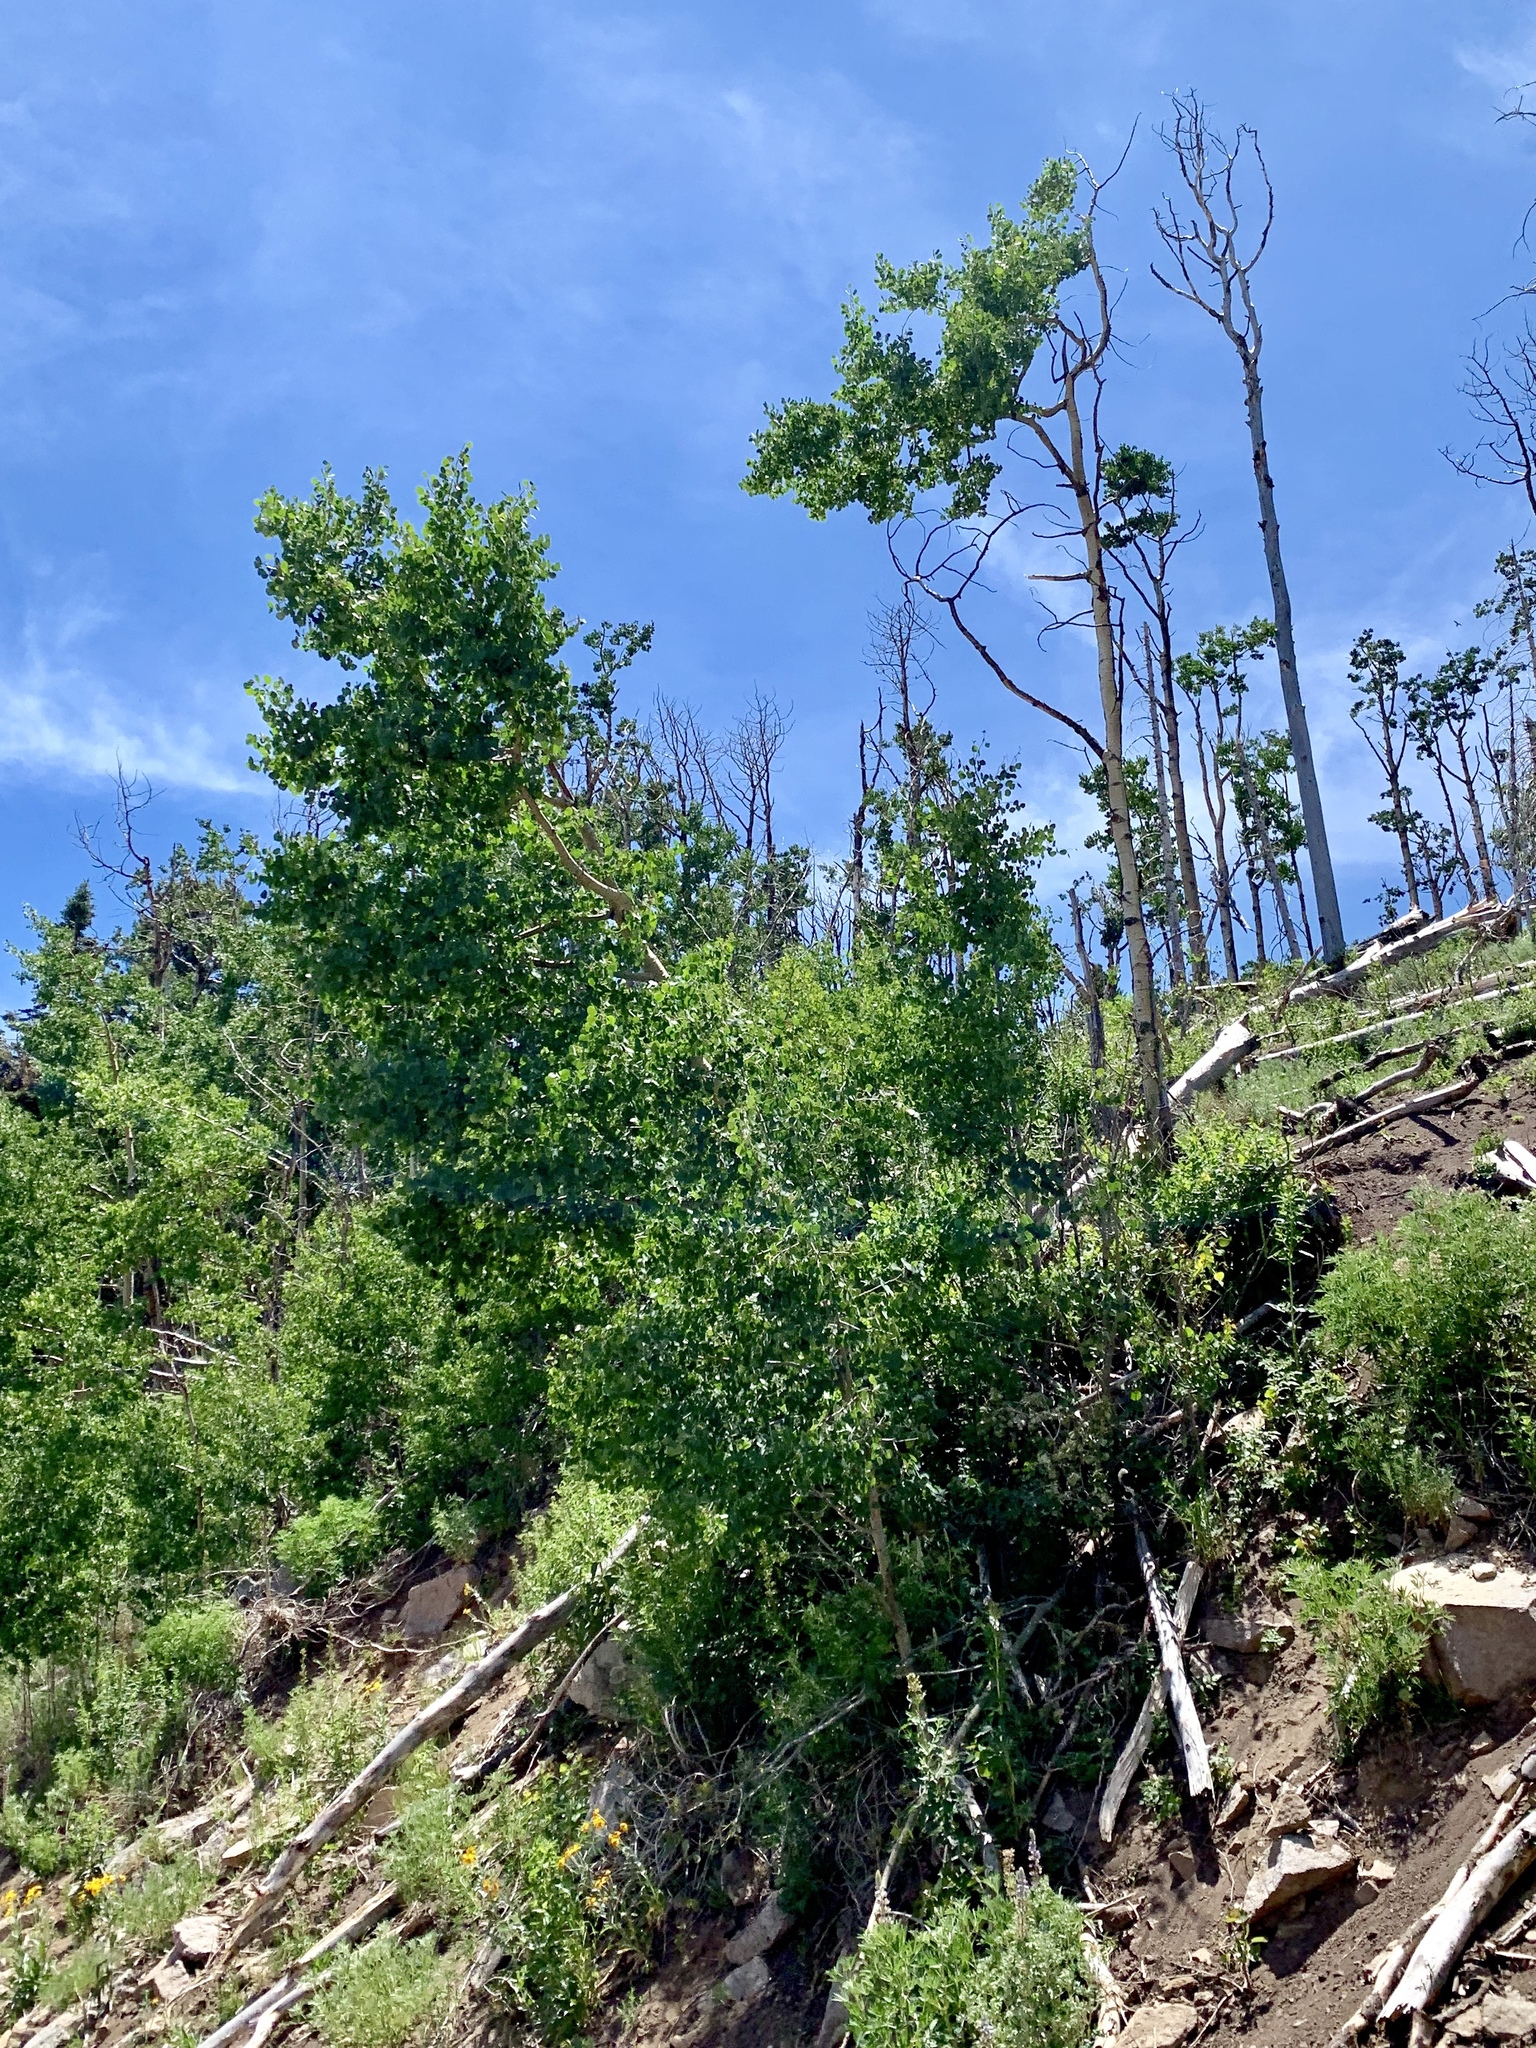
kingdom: Plantae
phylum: Tracheophyta
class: Magnoliopsida
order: Malpighiales
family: Salicaceae
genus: Populus
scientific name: Populus tremuloides
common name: Quaking aspen
